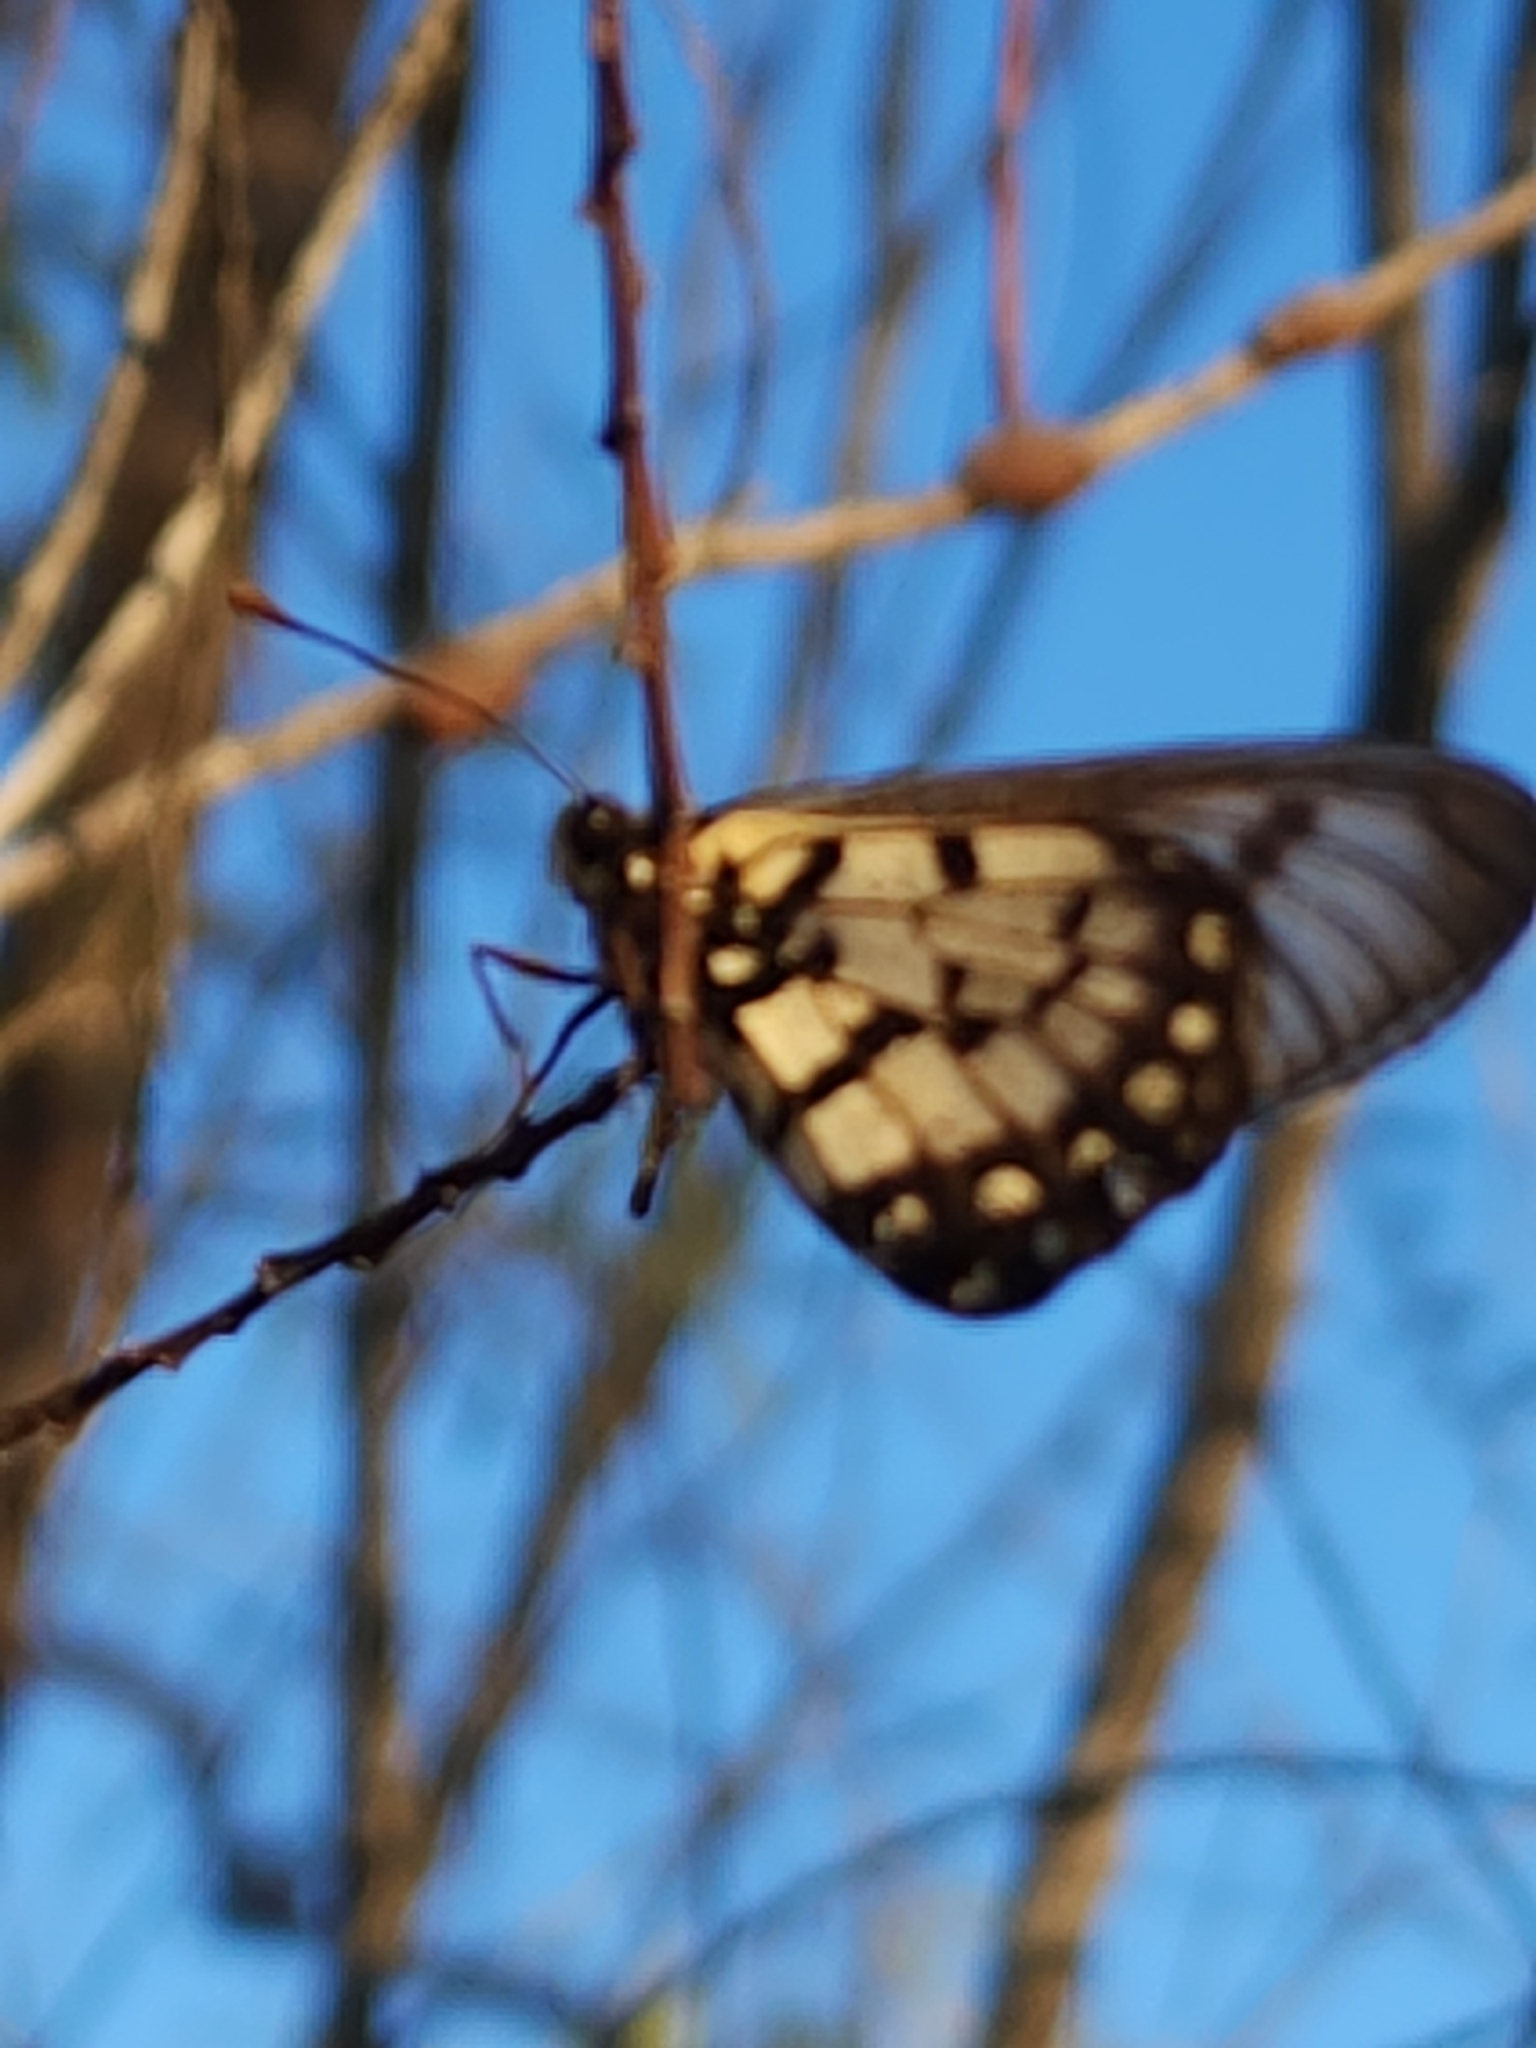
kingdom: Animalia
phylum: Arthropoda
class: Insecta
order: Lepidoptera
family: Nymphalidae
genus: Acraea
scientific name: Acraea andromacha
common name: Glasswing
